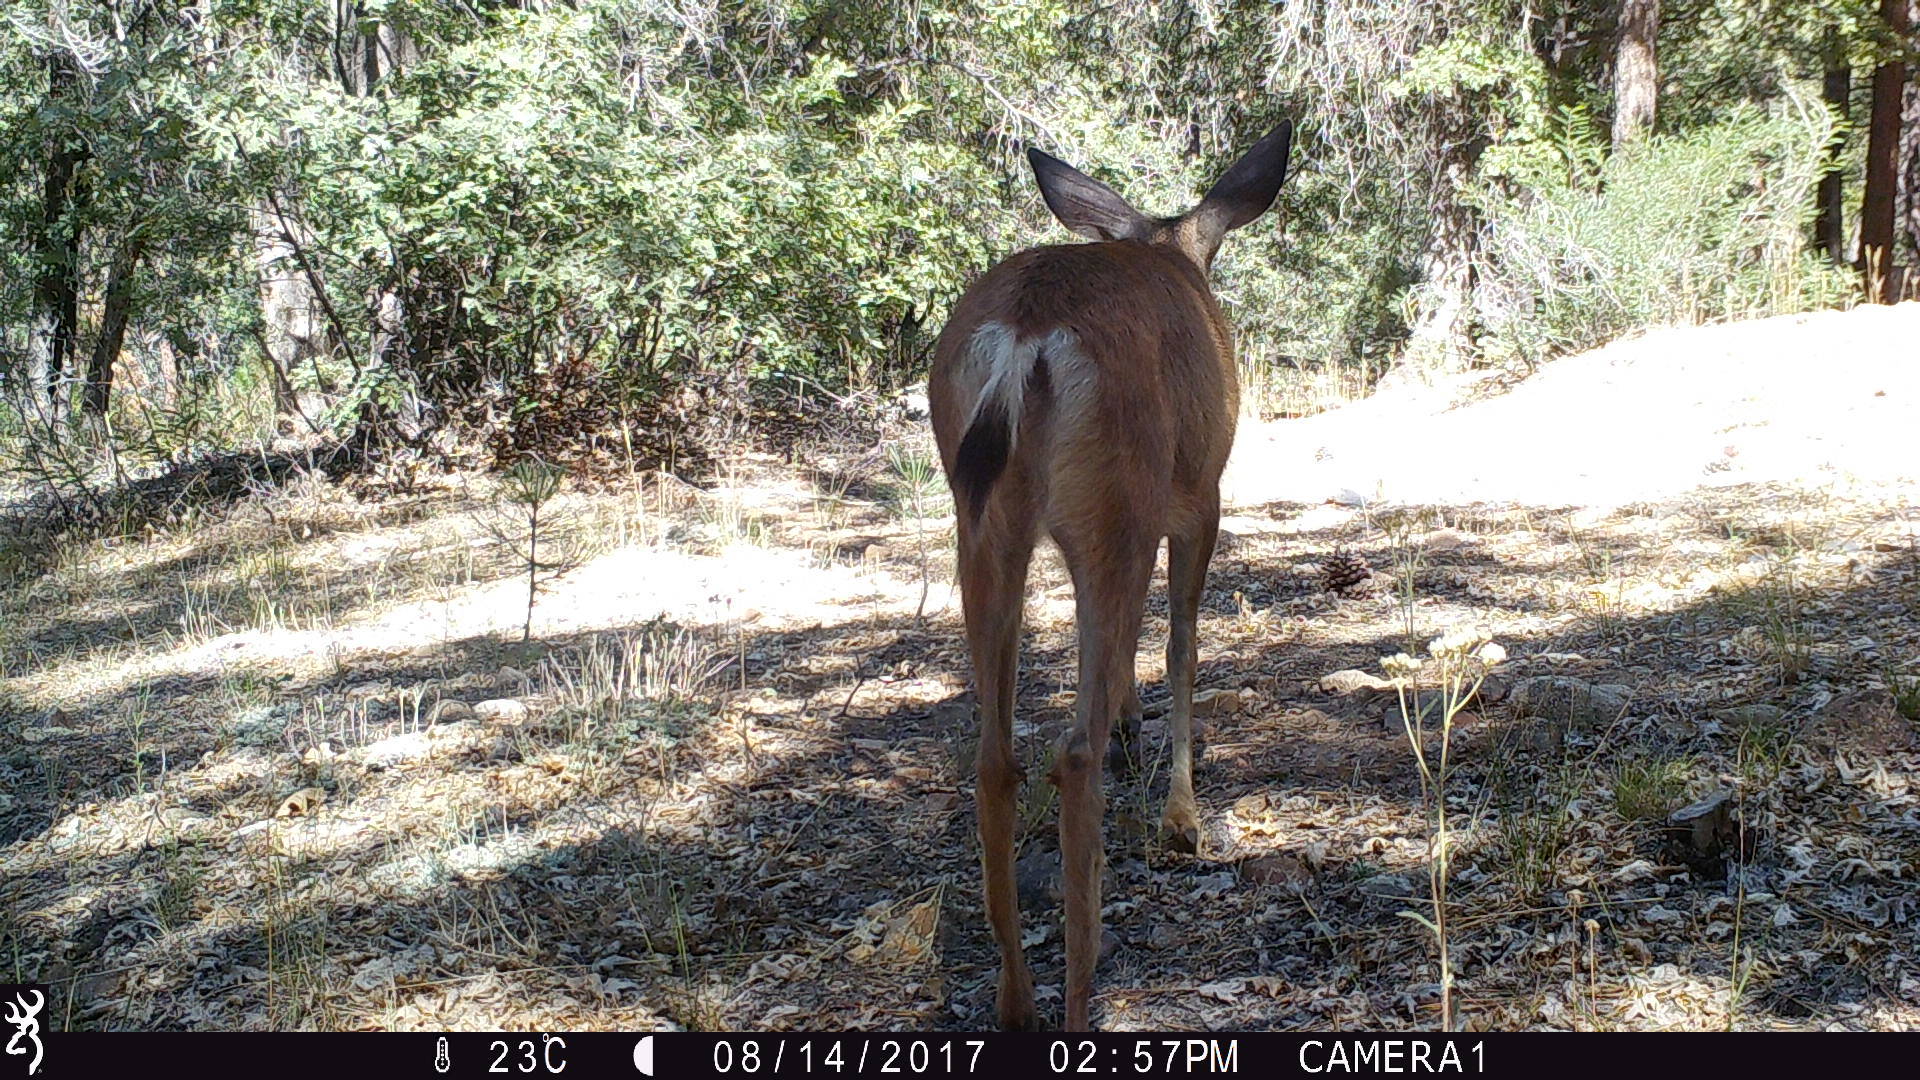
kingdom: Animalia
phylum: Chordata
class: Mammalia
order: Artiodactyla
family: Cervidae
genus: Odocoileus
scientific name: Odocoileus hemionus
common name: Mule deer
